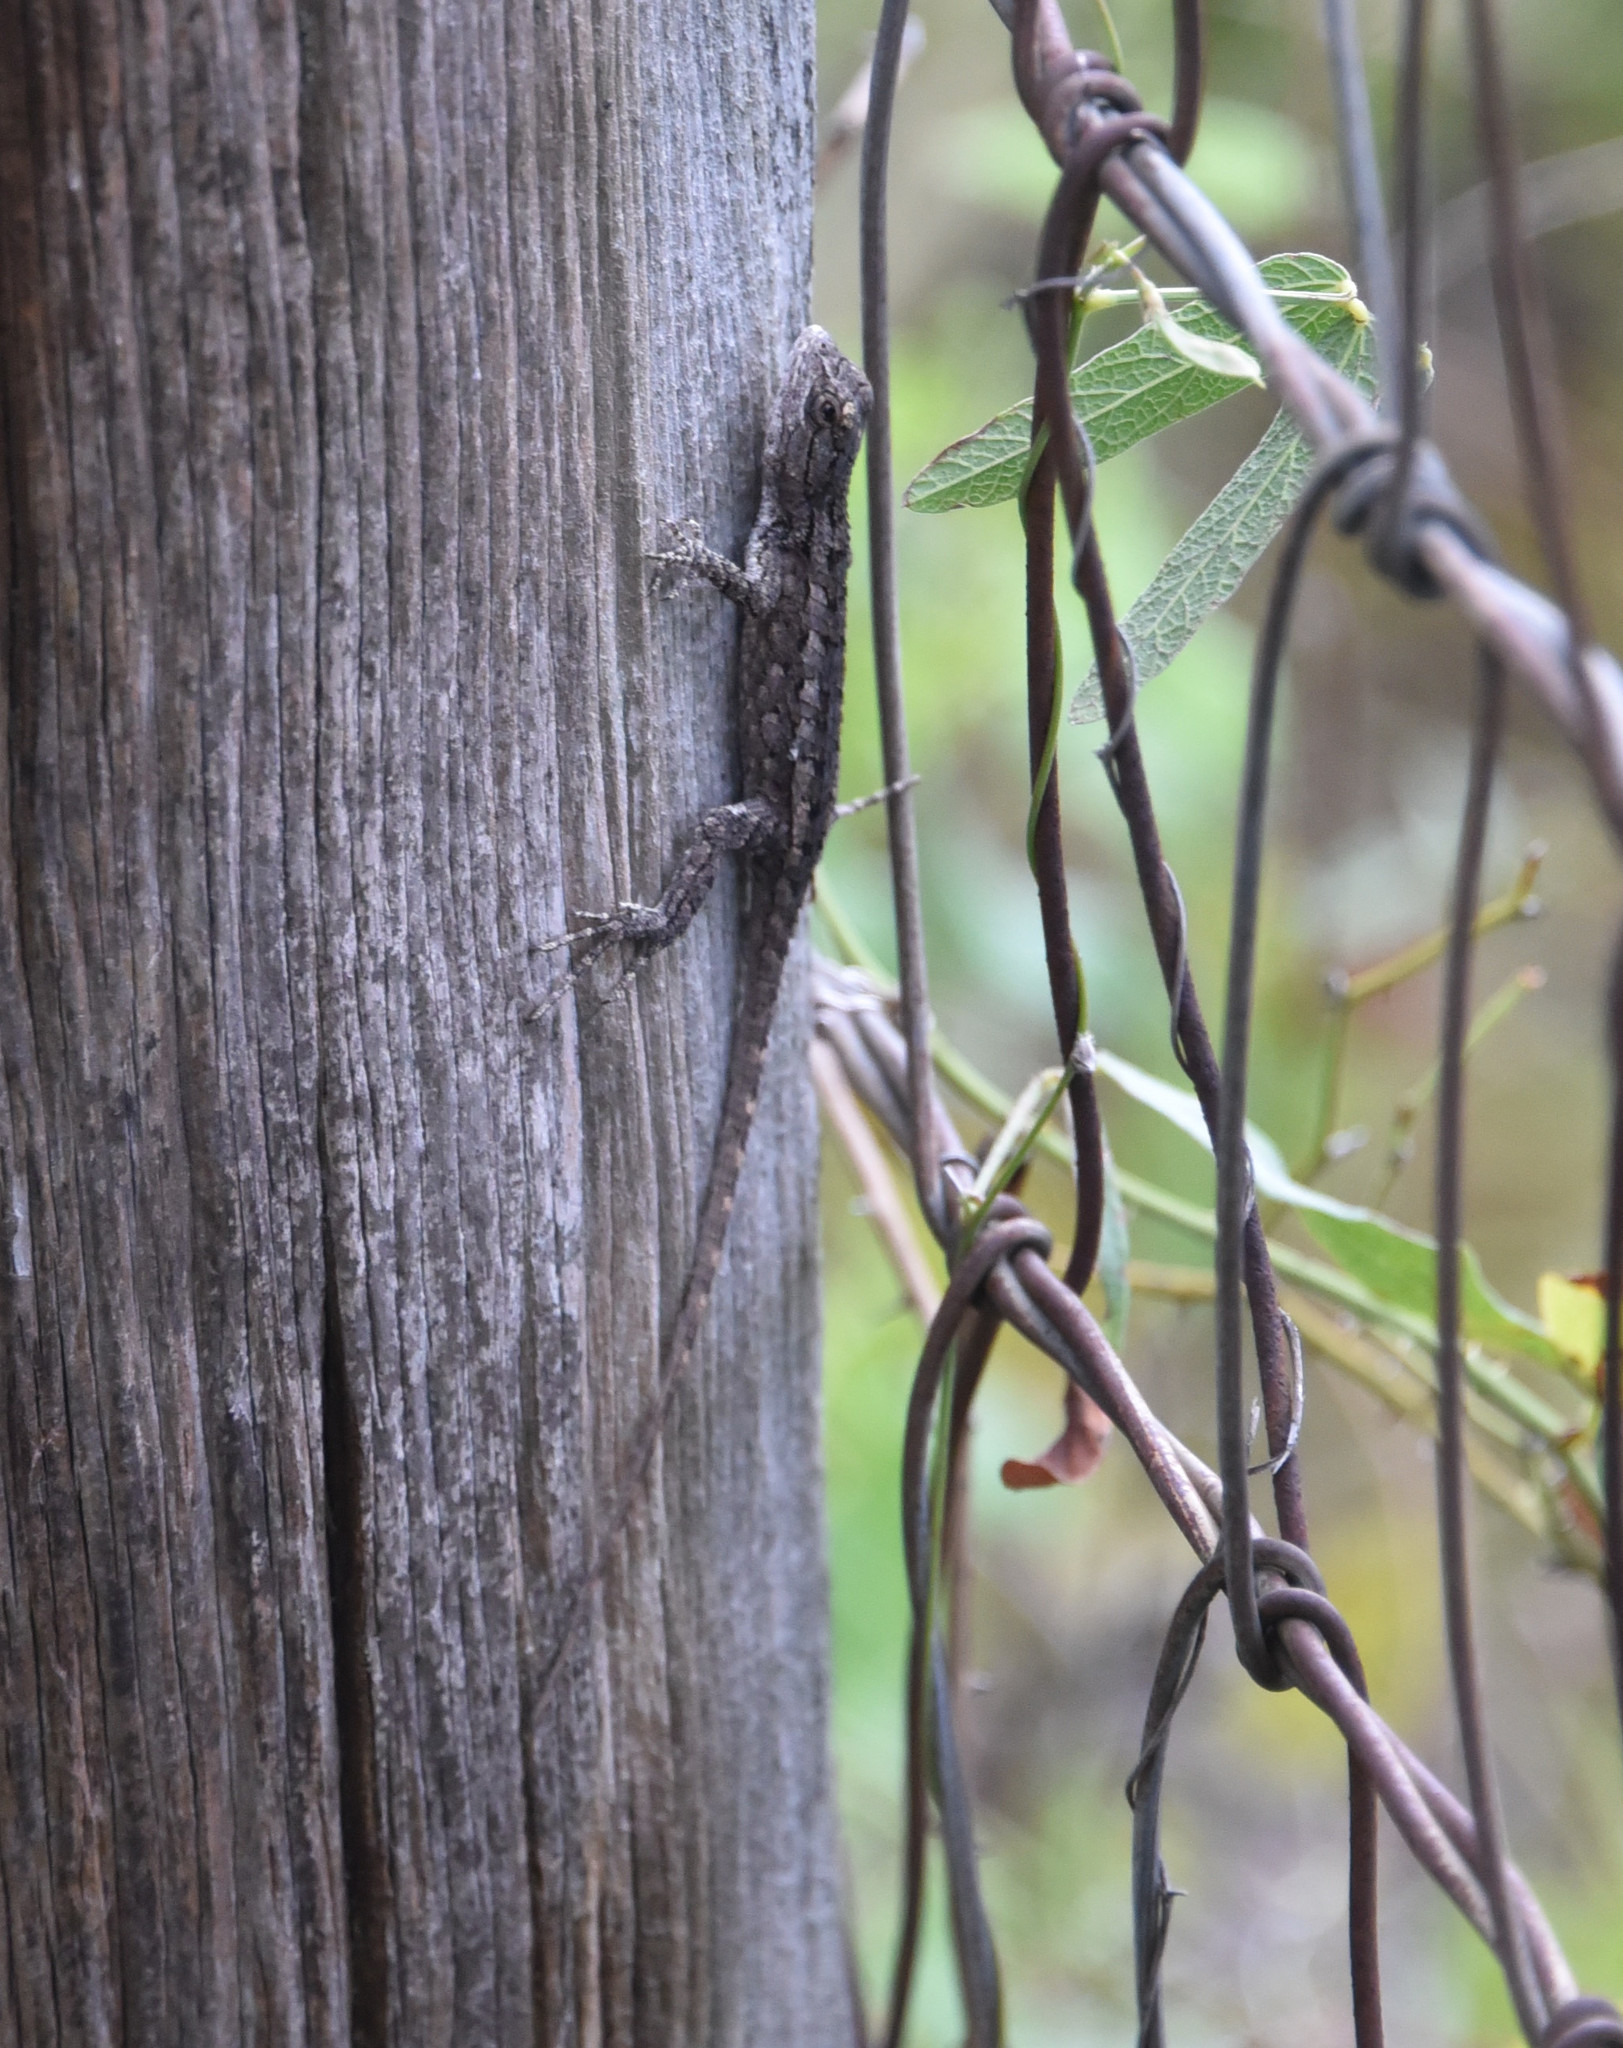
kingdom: Animalia
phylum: Chordata
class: Squamata
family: Phrynosomatidae
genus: Sceloporus
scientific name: Sceloporus olivaceus
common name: Texas spiny lizard
